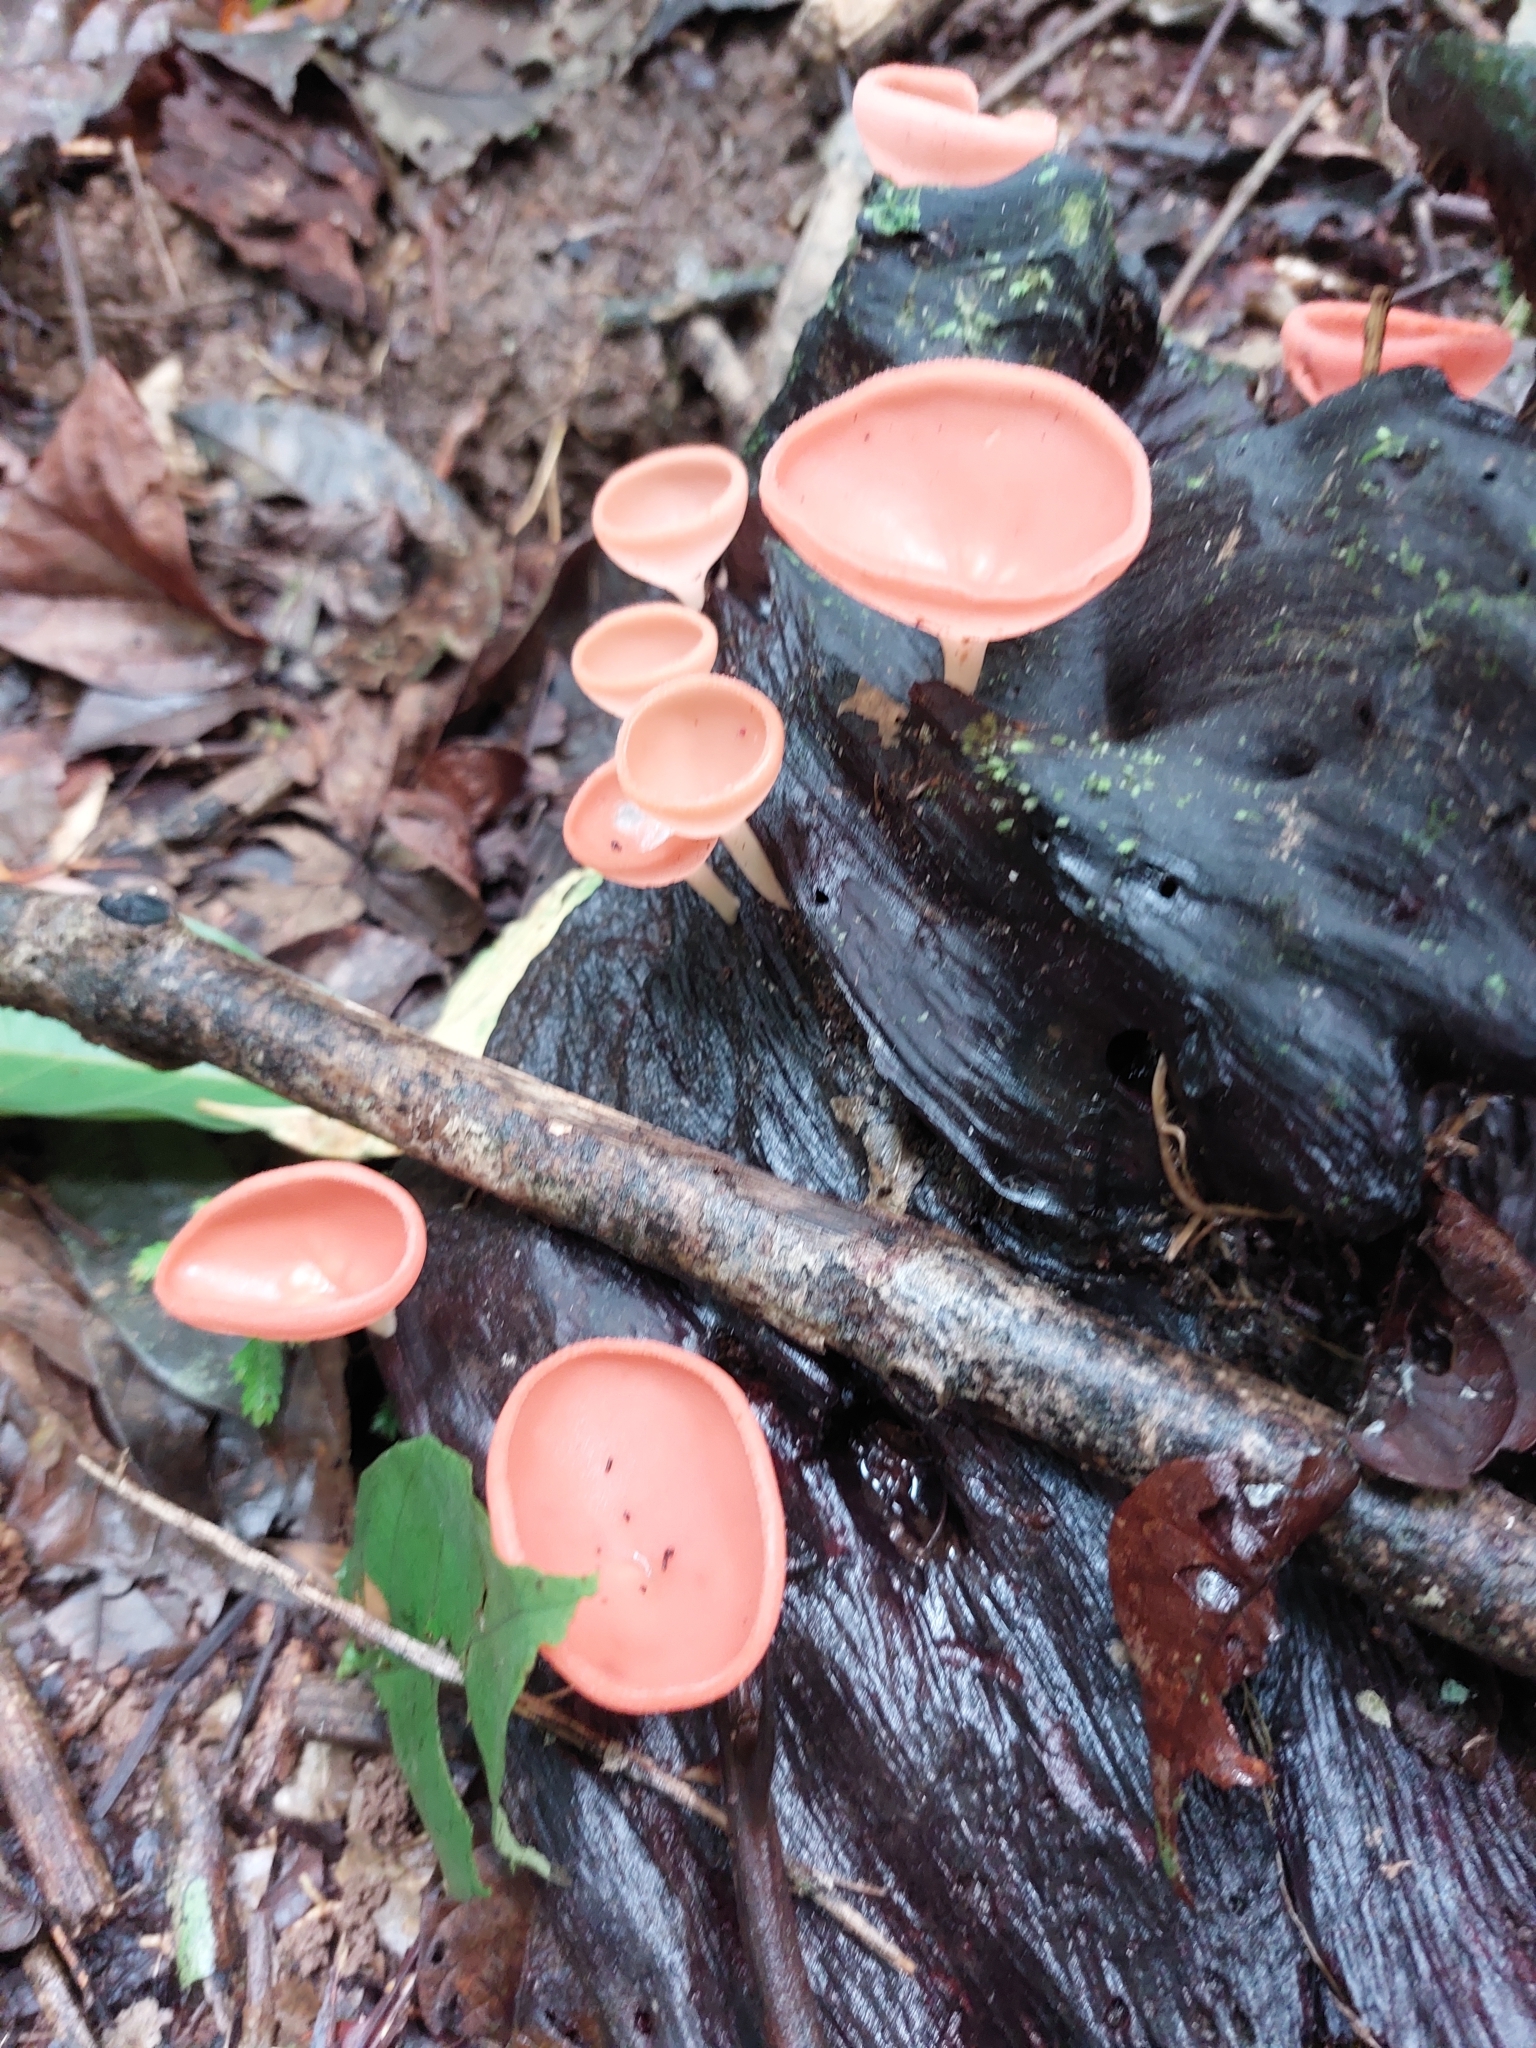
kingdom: Fungi
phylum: Ascomycota
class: Pezizomycetes
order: Pezizales
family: Sarcoscyphaceae
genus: Cookeina
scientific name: Cookeina speciosa
